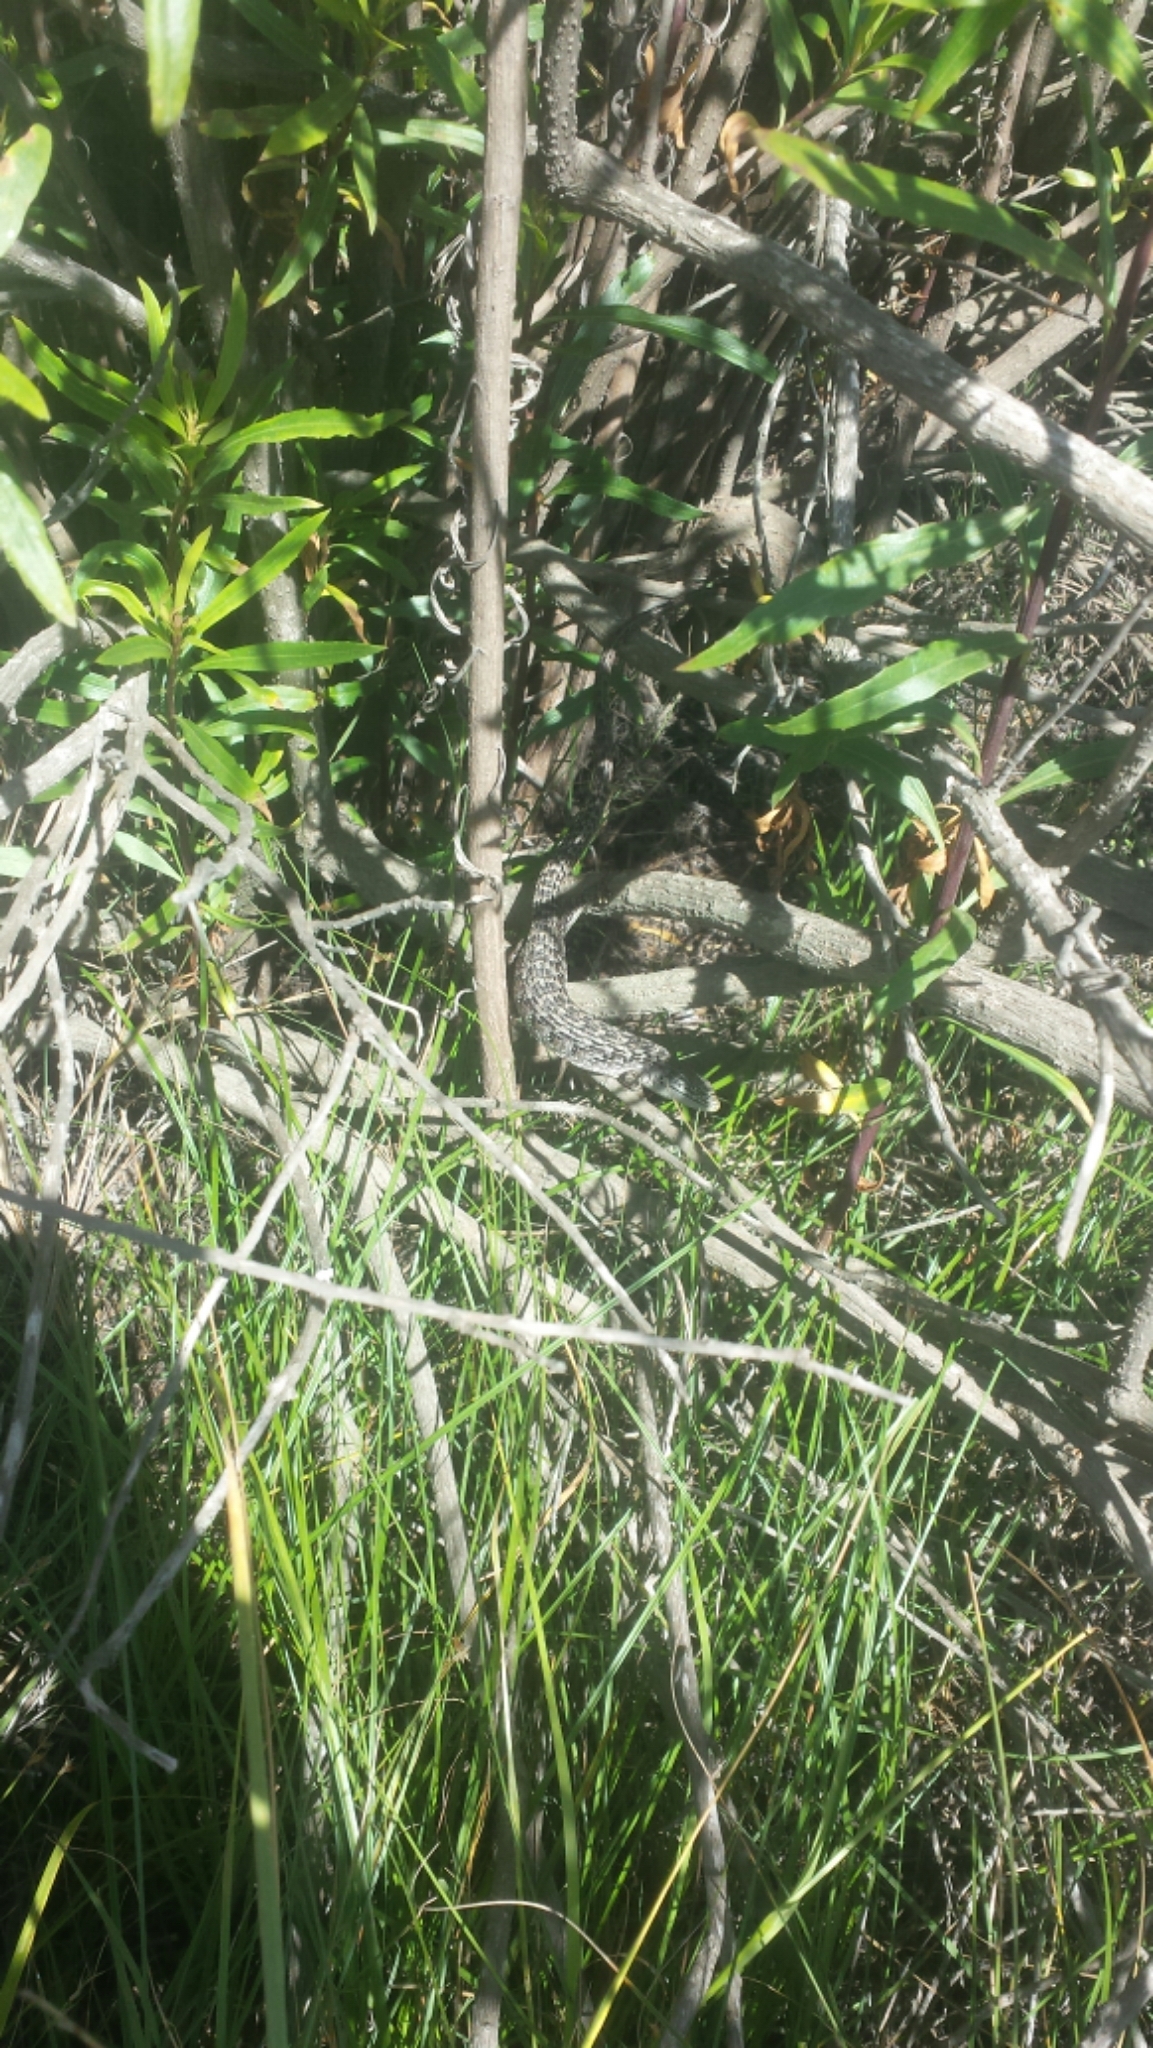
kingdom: Animalia
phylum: Chordata
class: Squamata
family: Anguidae
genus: Elgaria
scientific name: Elgaria multicarinata
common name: Southern alligator lizard
